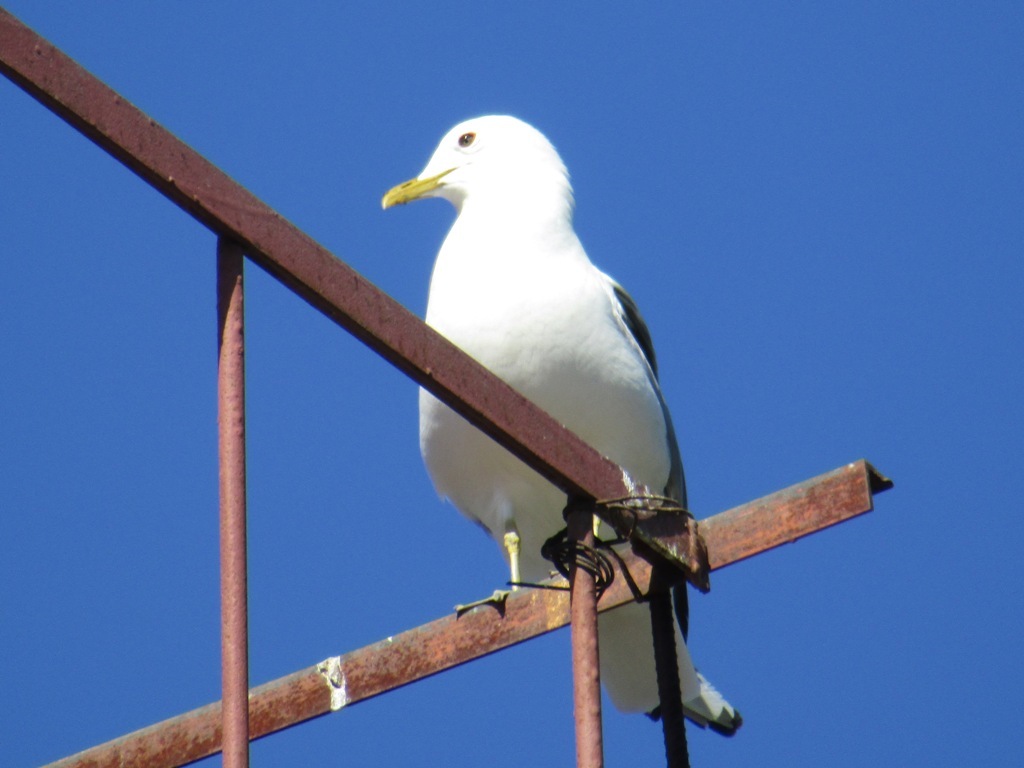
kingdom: Animalia
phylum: Chordata
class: Aves
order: Charadriiformes
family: Laridae
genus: Larus
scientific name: Larus canus
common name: Mew gull
